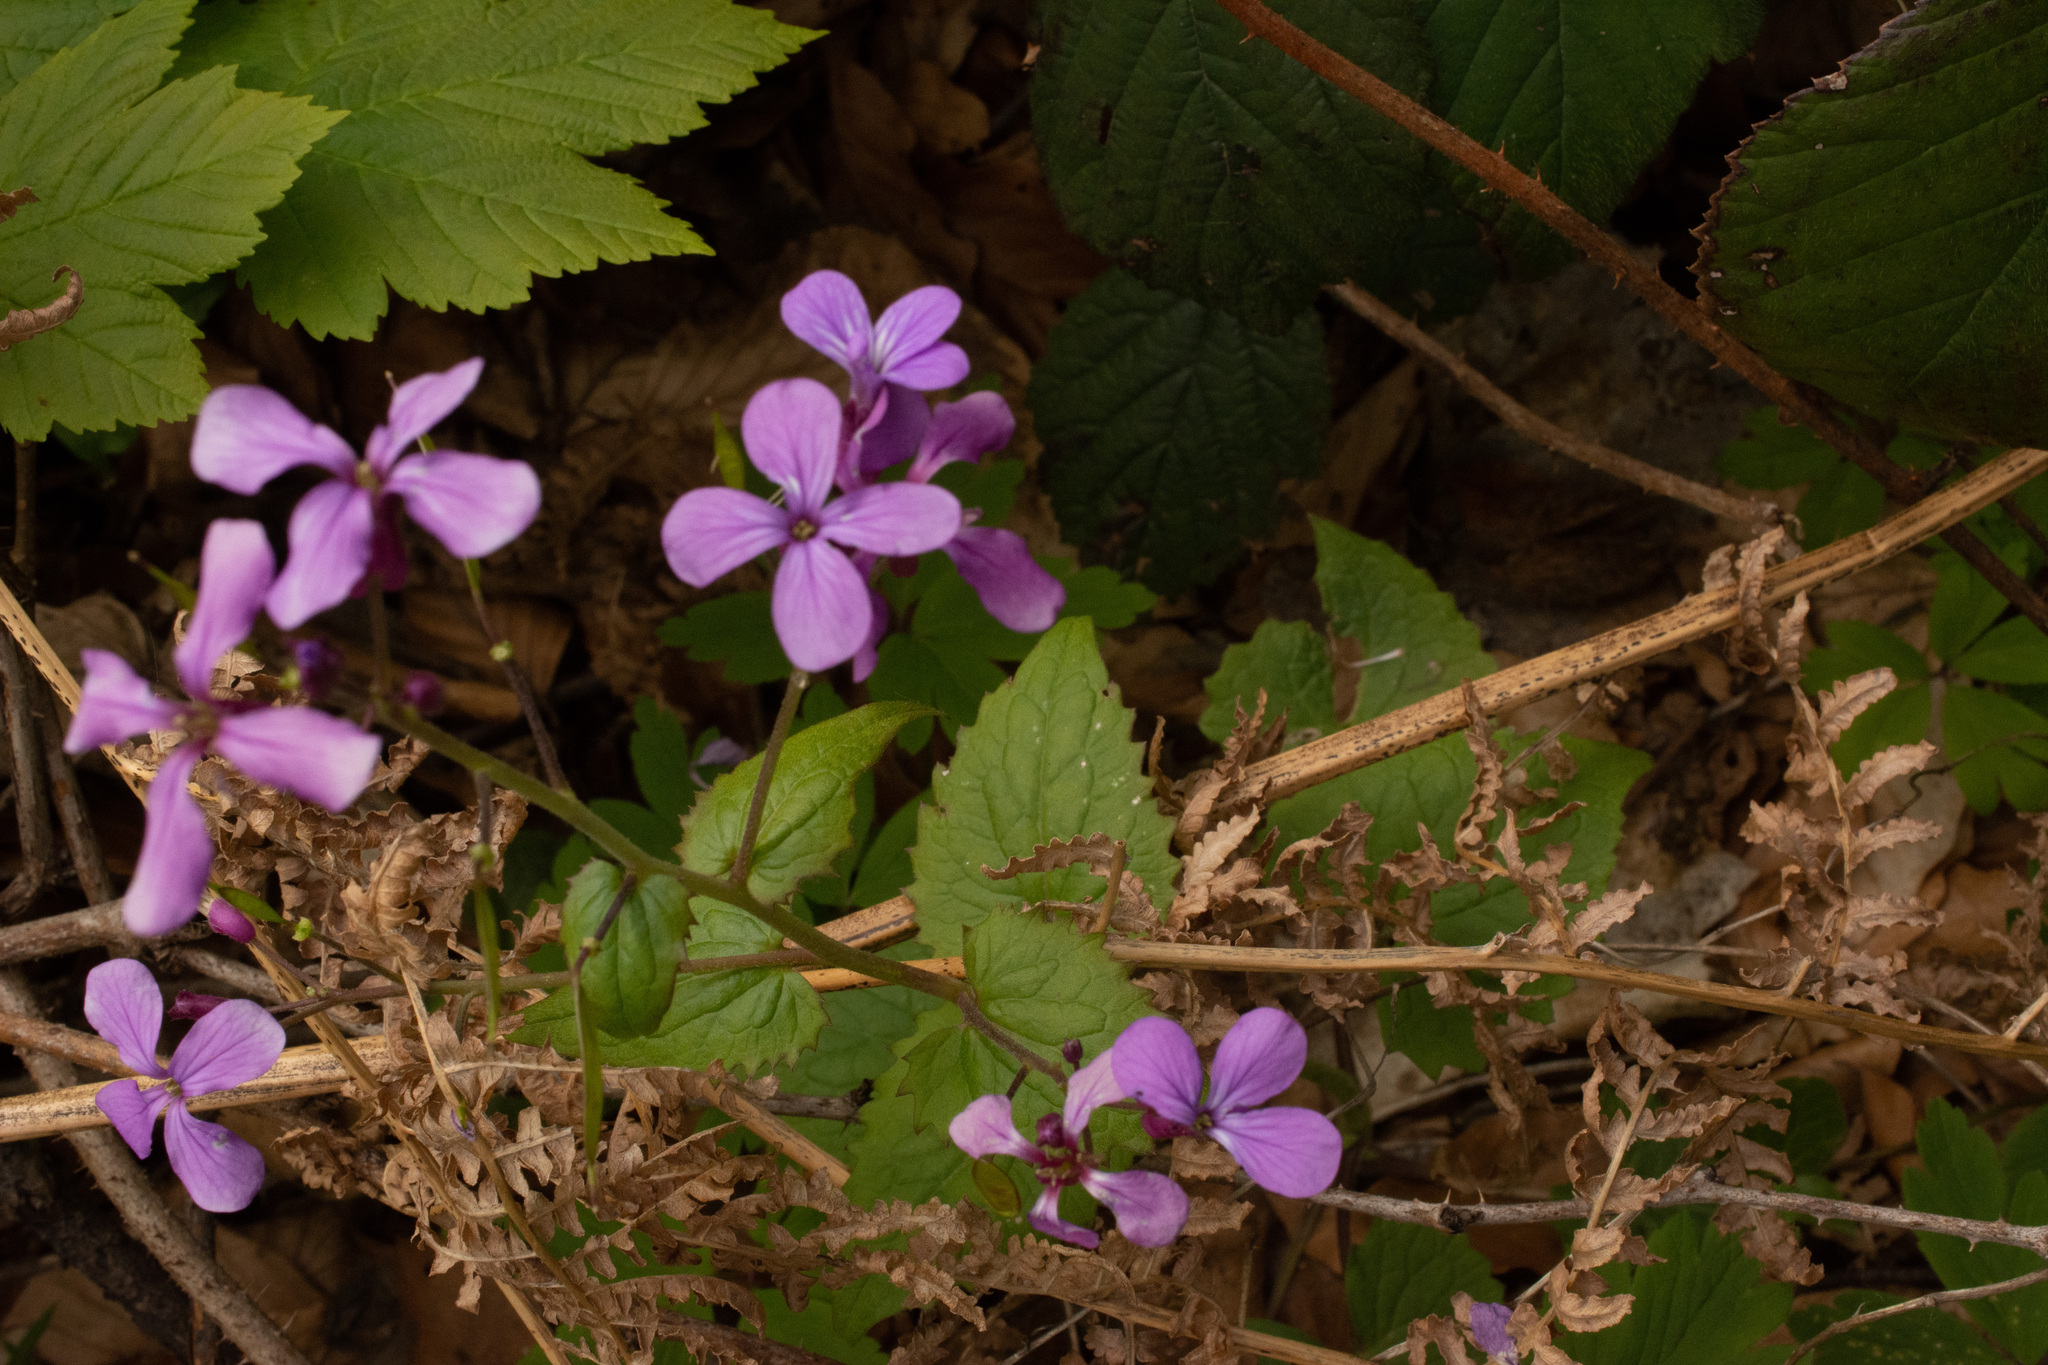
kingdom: Plantae
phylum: Tracheophyta
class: Magnoliopsida
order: Brassicales
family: Brassicaceae
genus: Lunaria
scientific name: Lunaria annua
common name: Honesty
